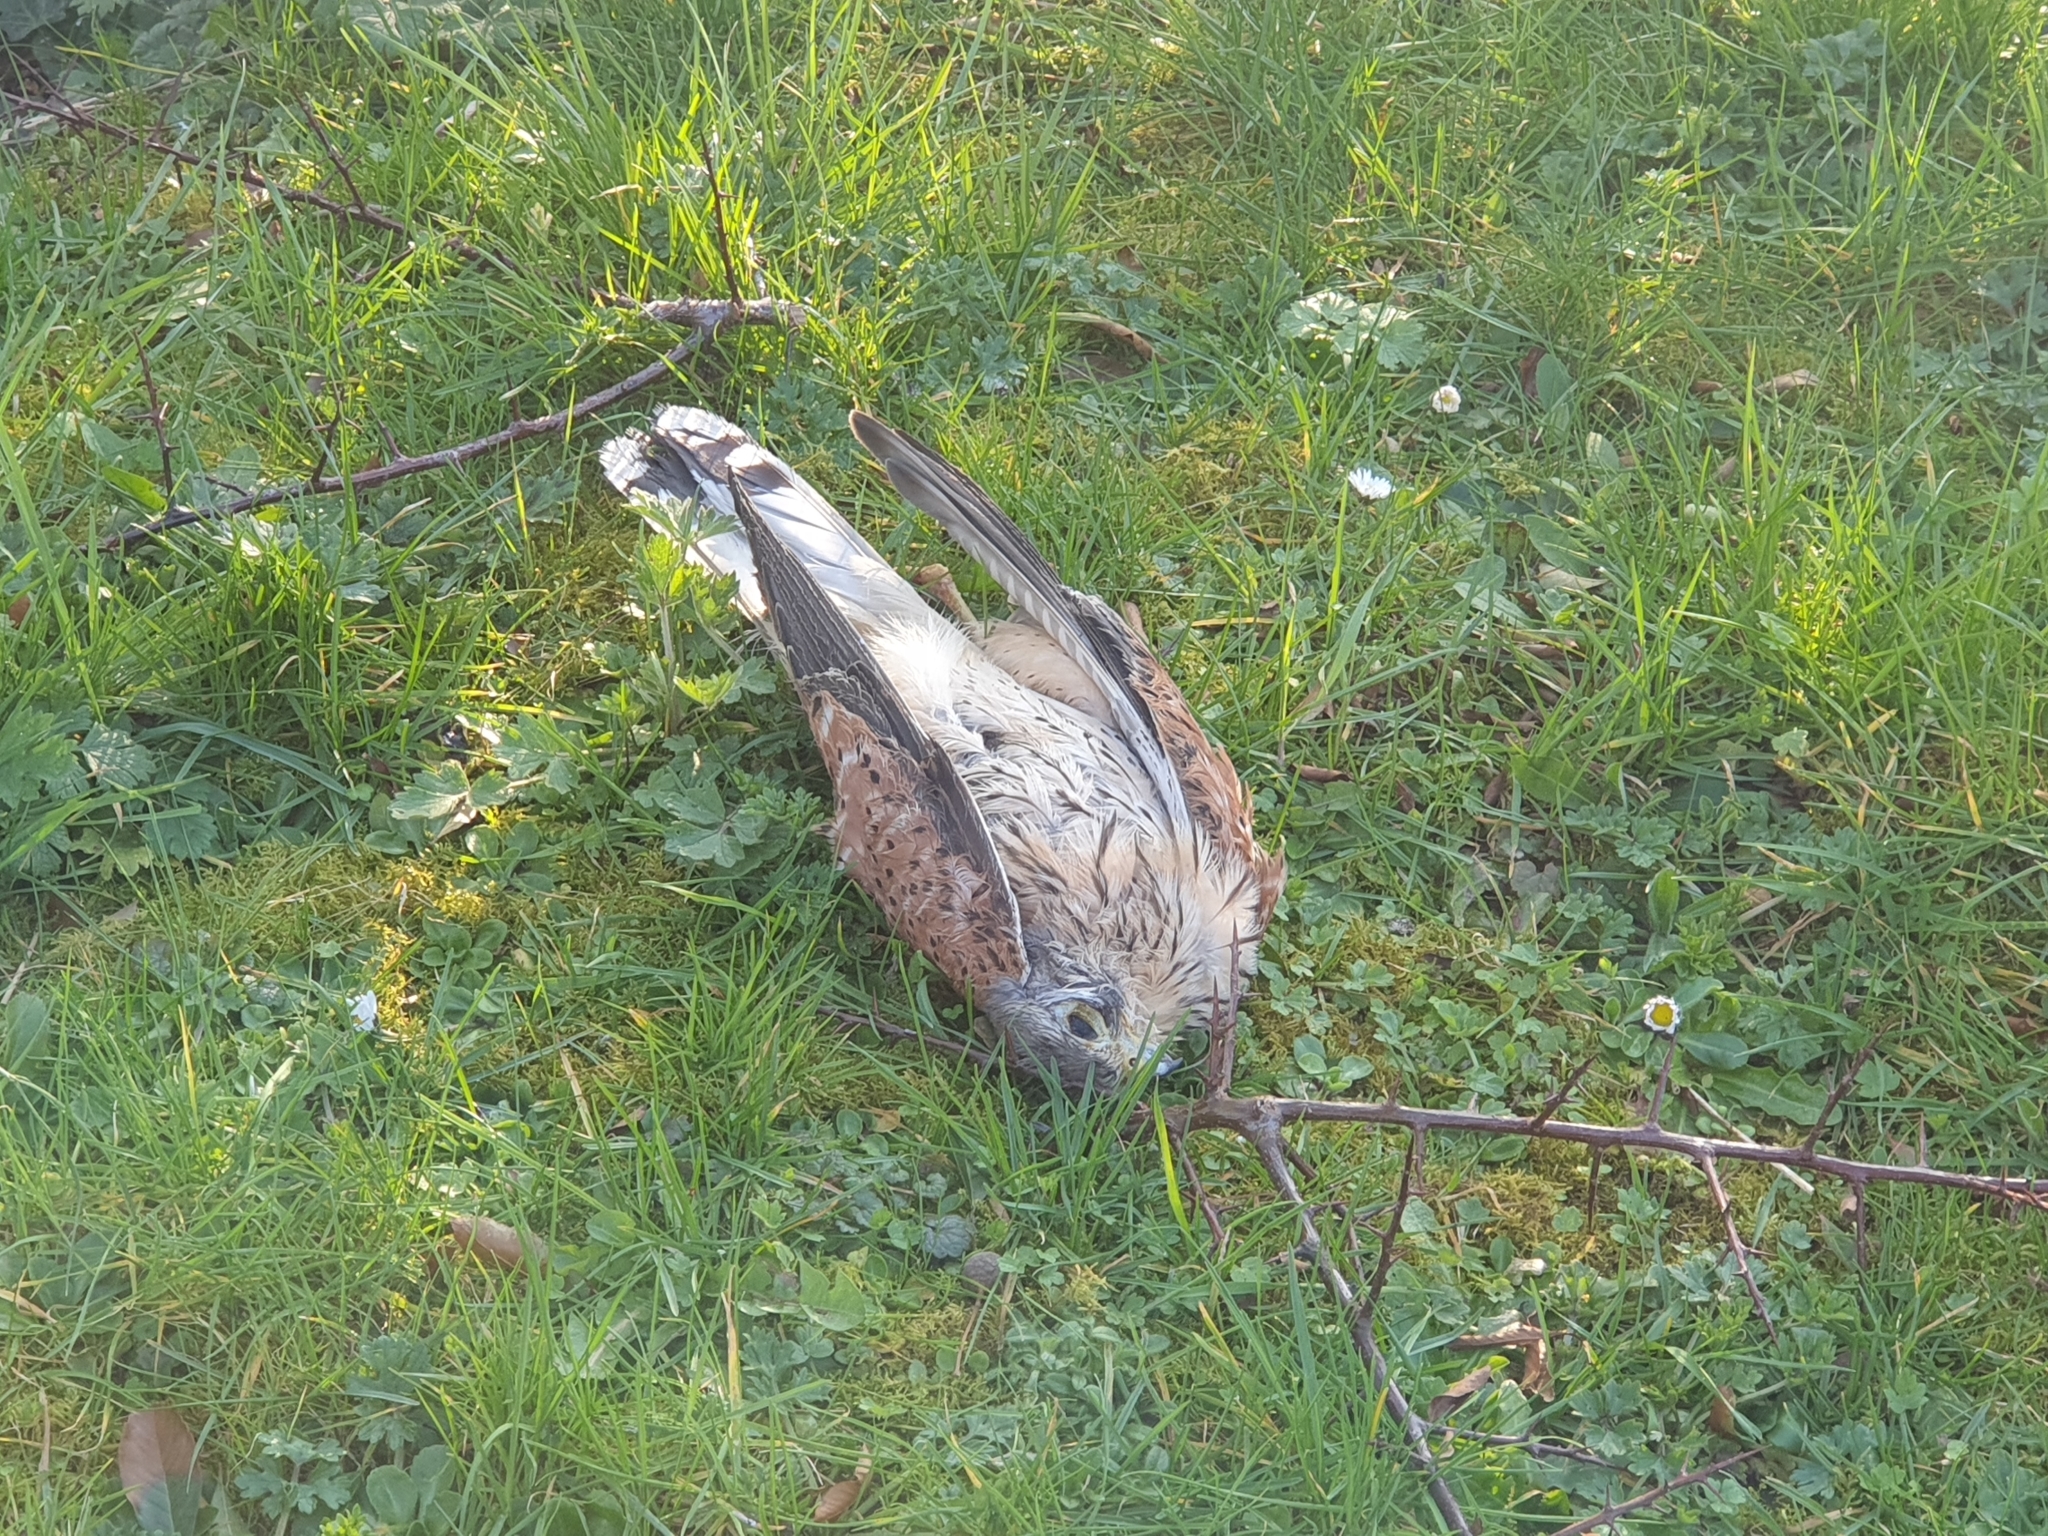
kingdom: Animalia
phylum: Chordata
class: Aves
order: Falconiformes
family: Falconidae
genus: Falco
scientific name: Falco tinnunculus
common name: Common kestrel
